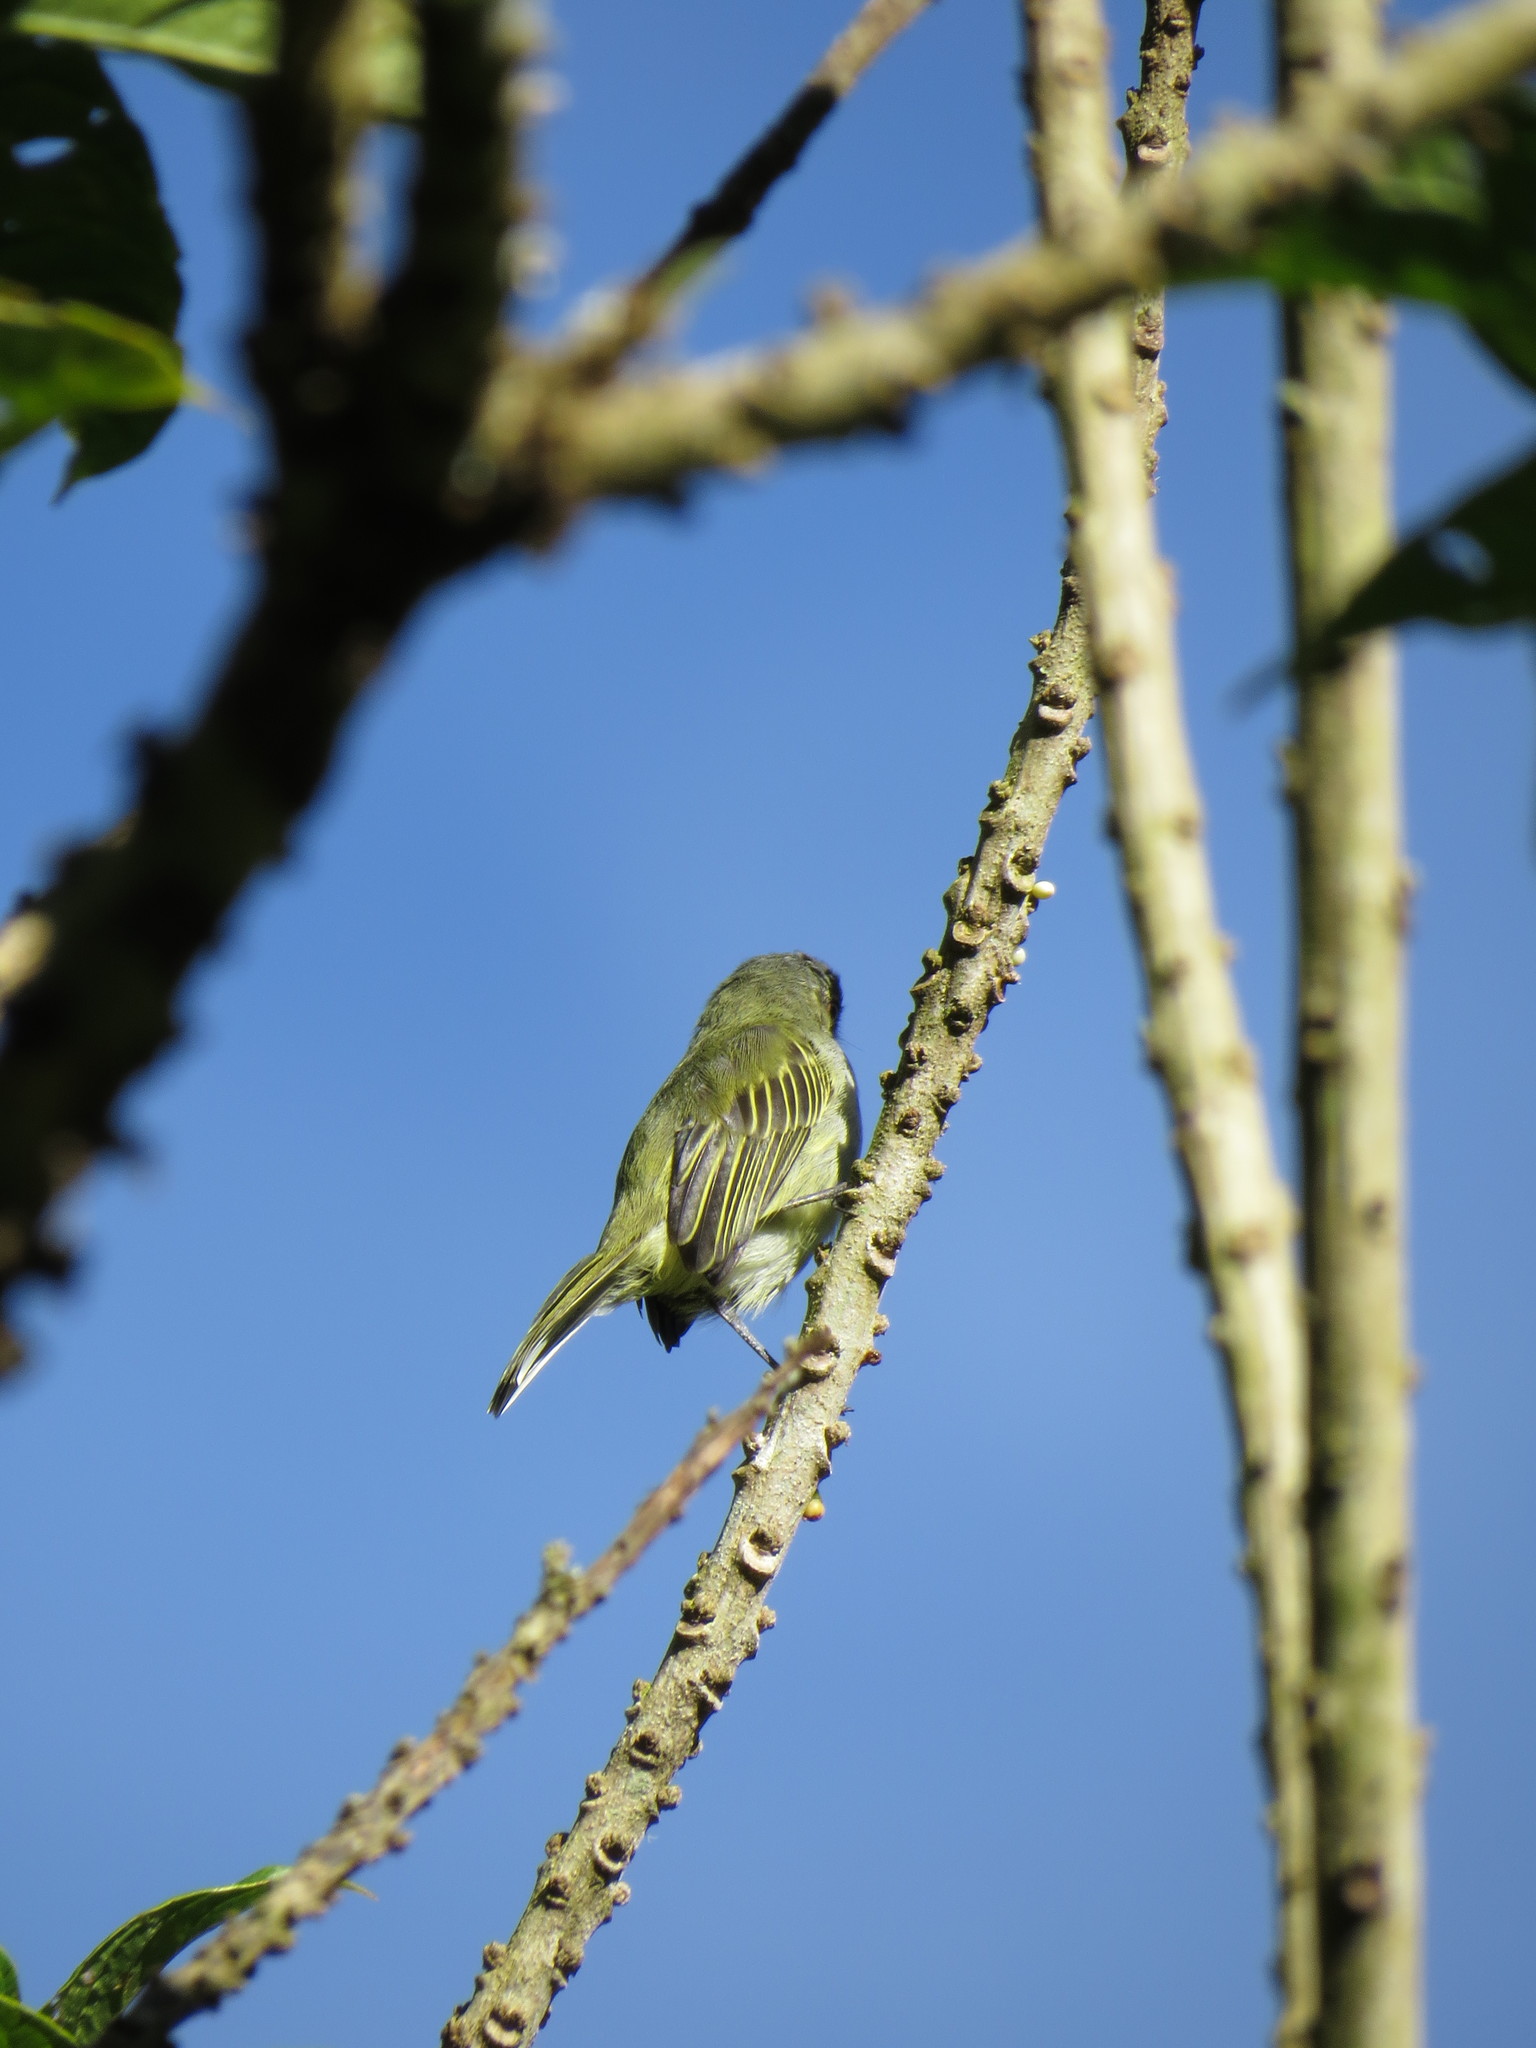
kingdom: Animalia
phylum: Chordata
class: Aves
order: Passeriformes
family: Tyrannidae
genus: Zimmerius
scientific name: Zimmerius vilissimus
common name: Paltry tyrannulet
